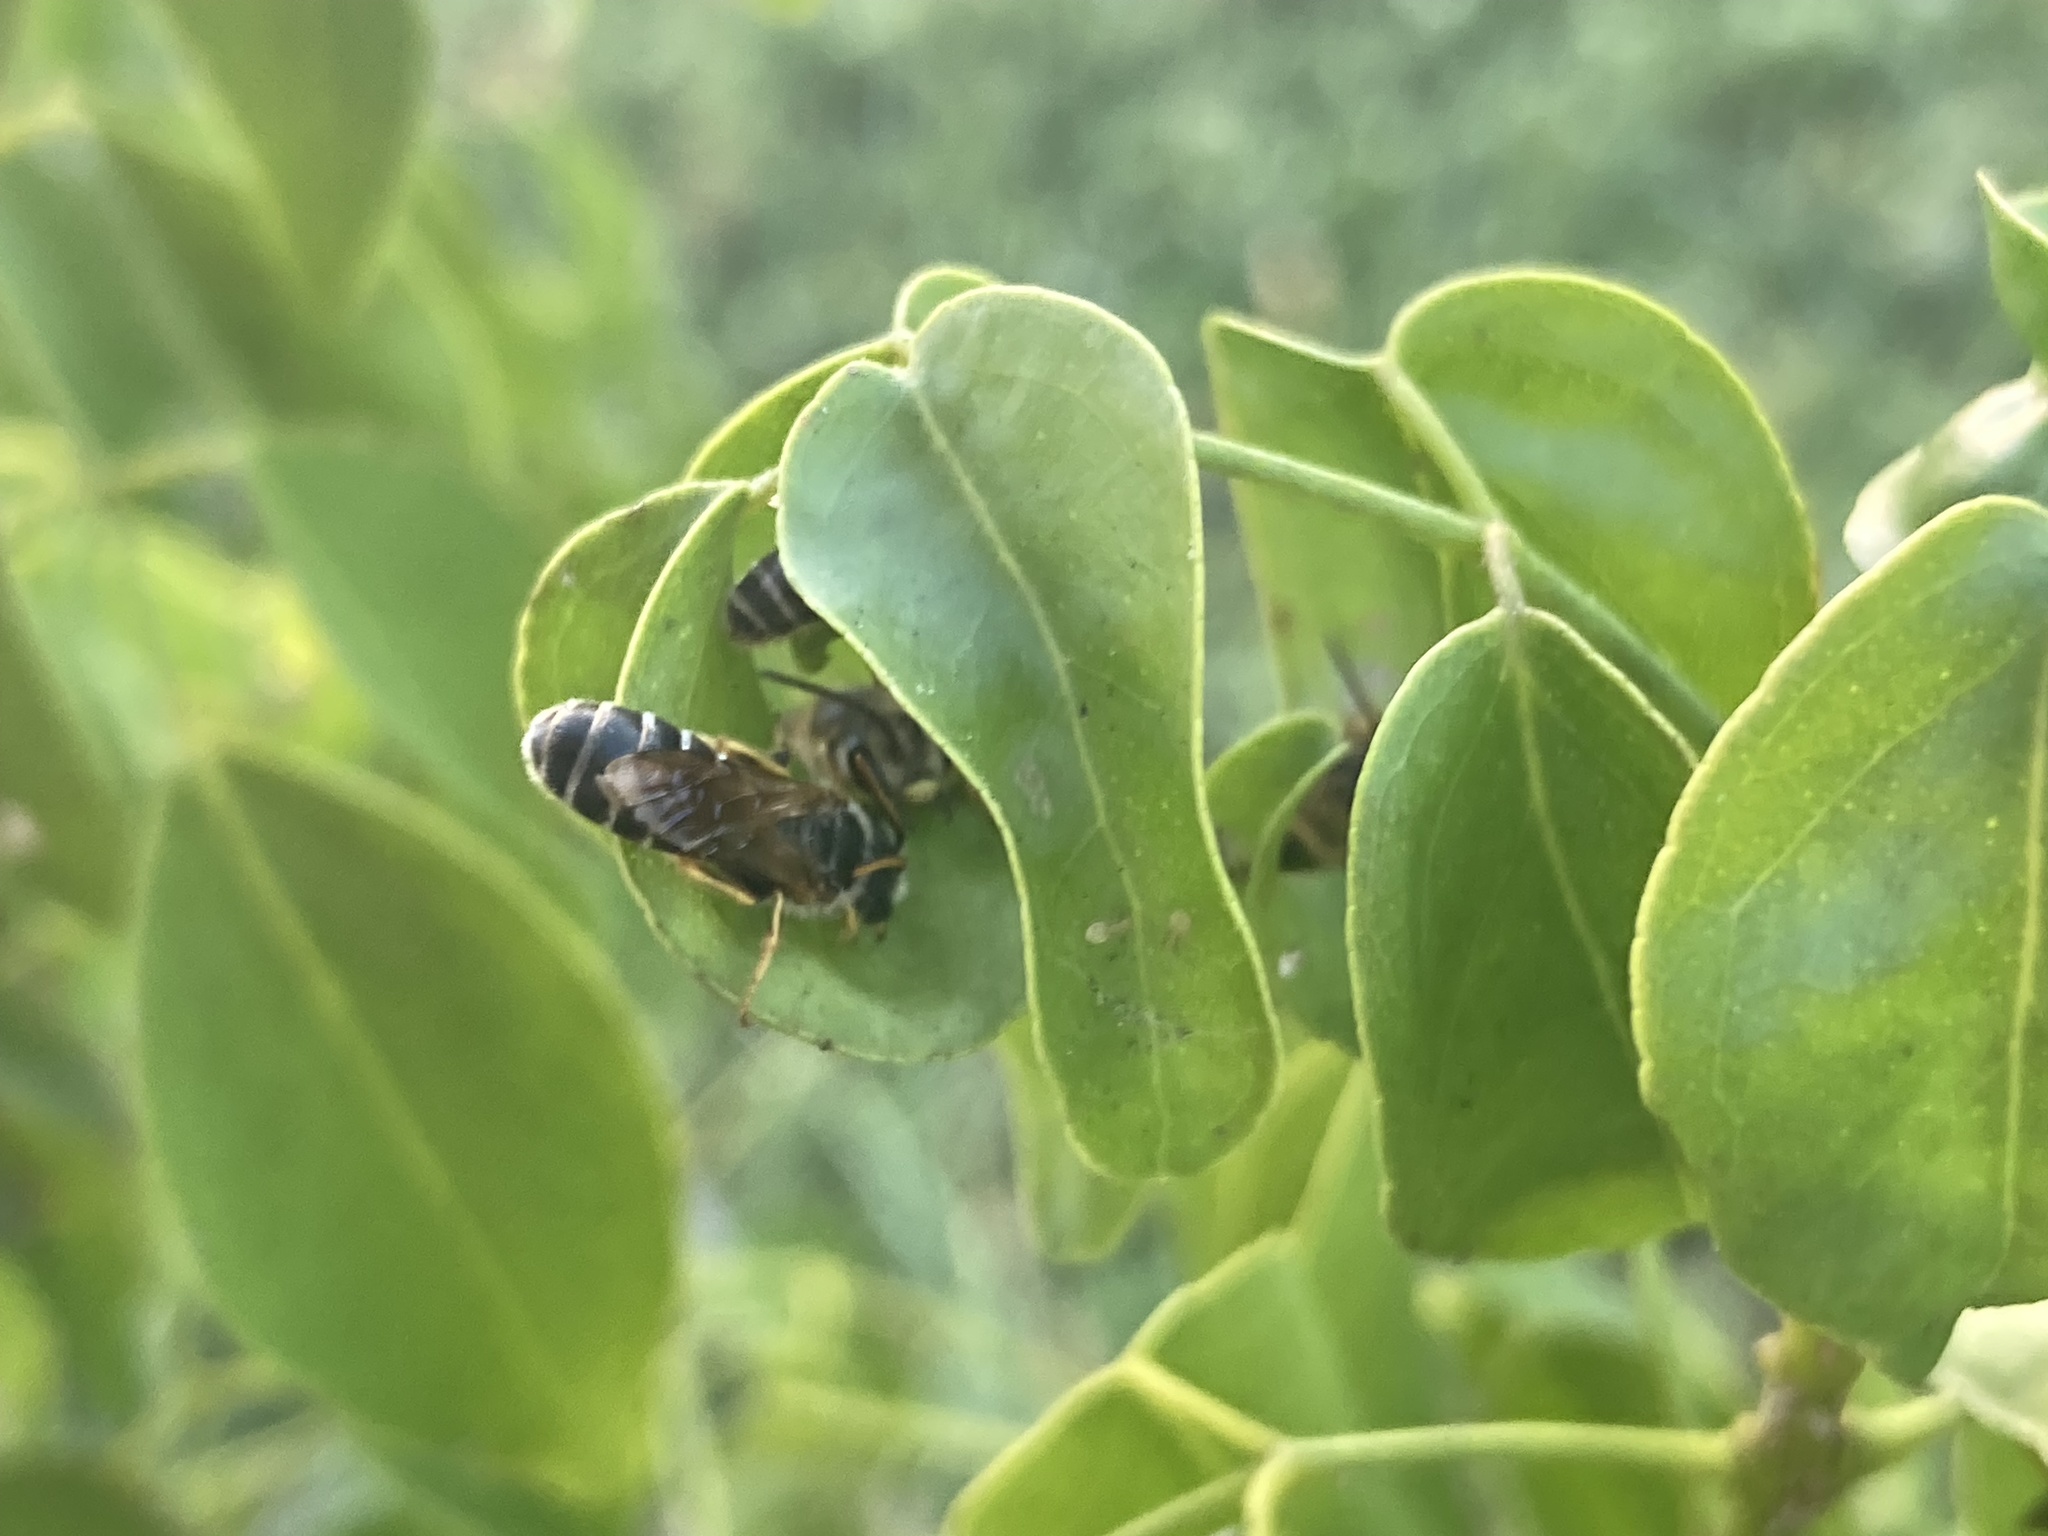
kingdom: Animalia
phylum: Arthropoda
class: Insecta
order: Hymenoptera
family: Halictidae
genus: Halictus
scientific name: Halictus poeyi
